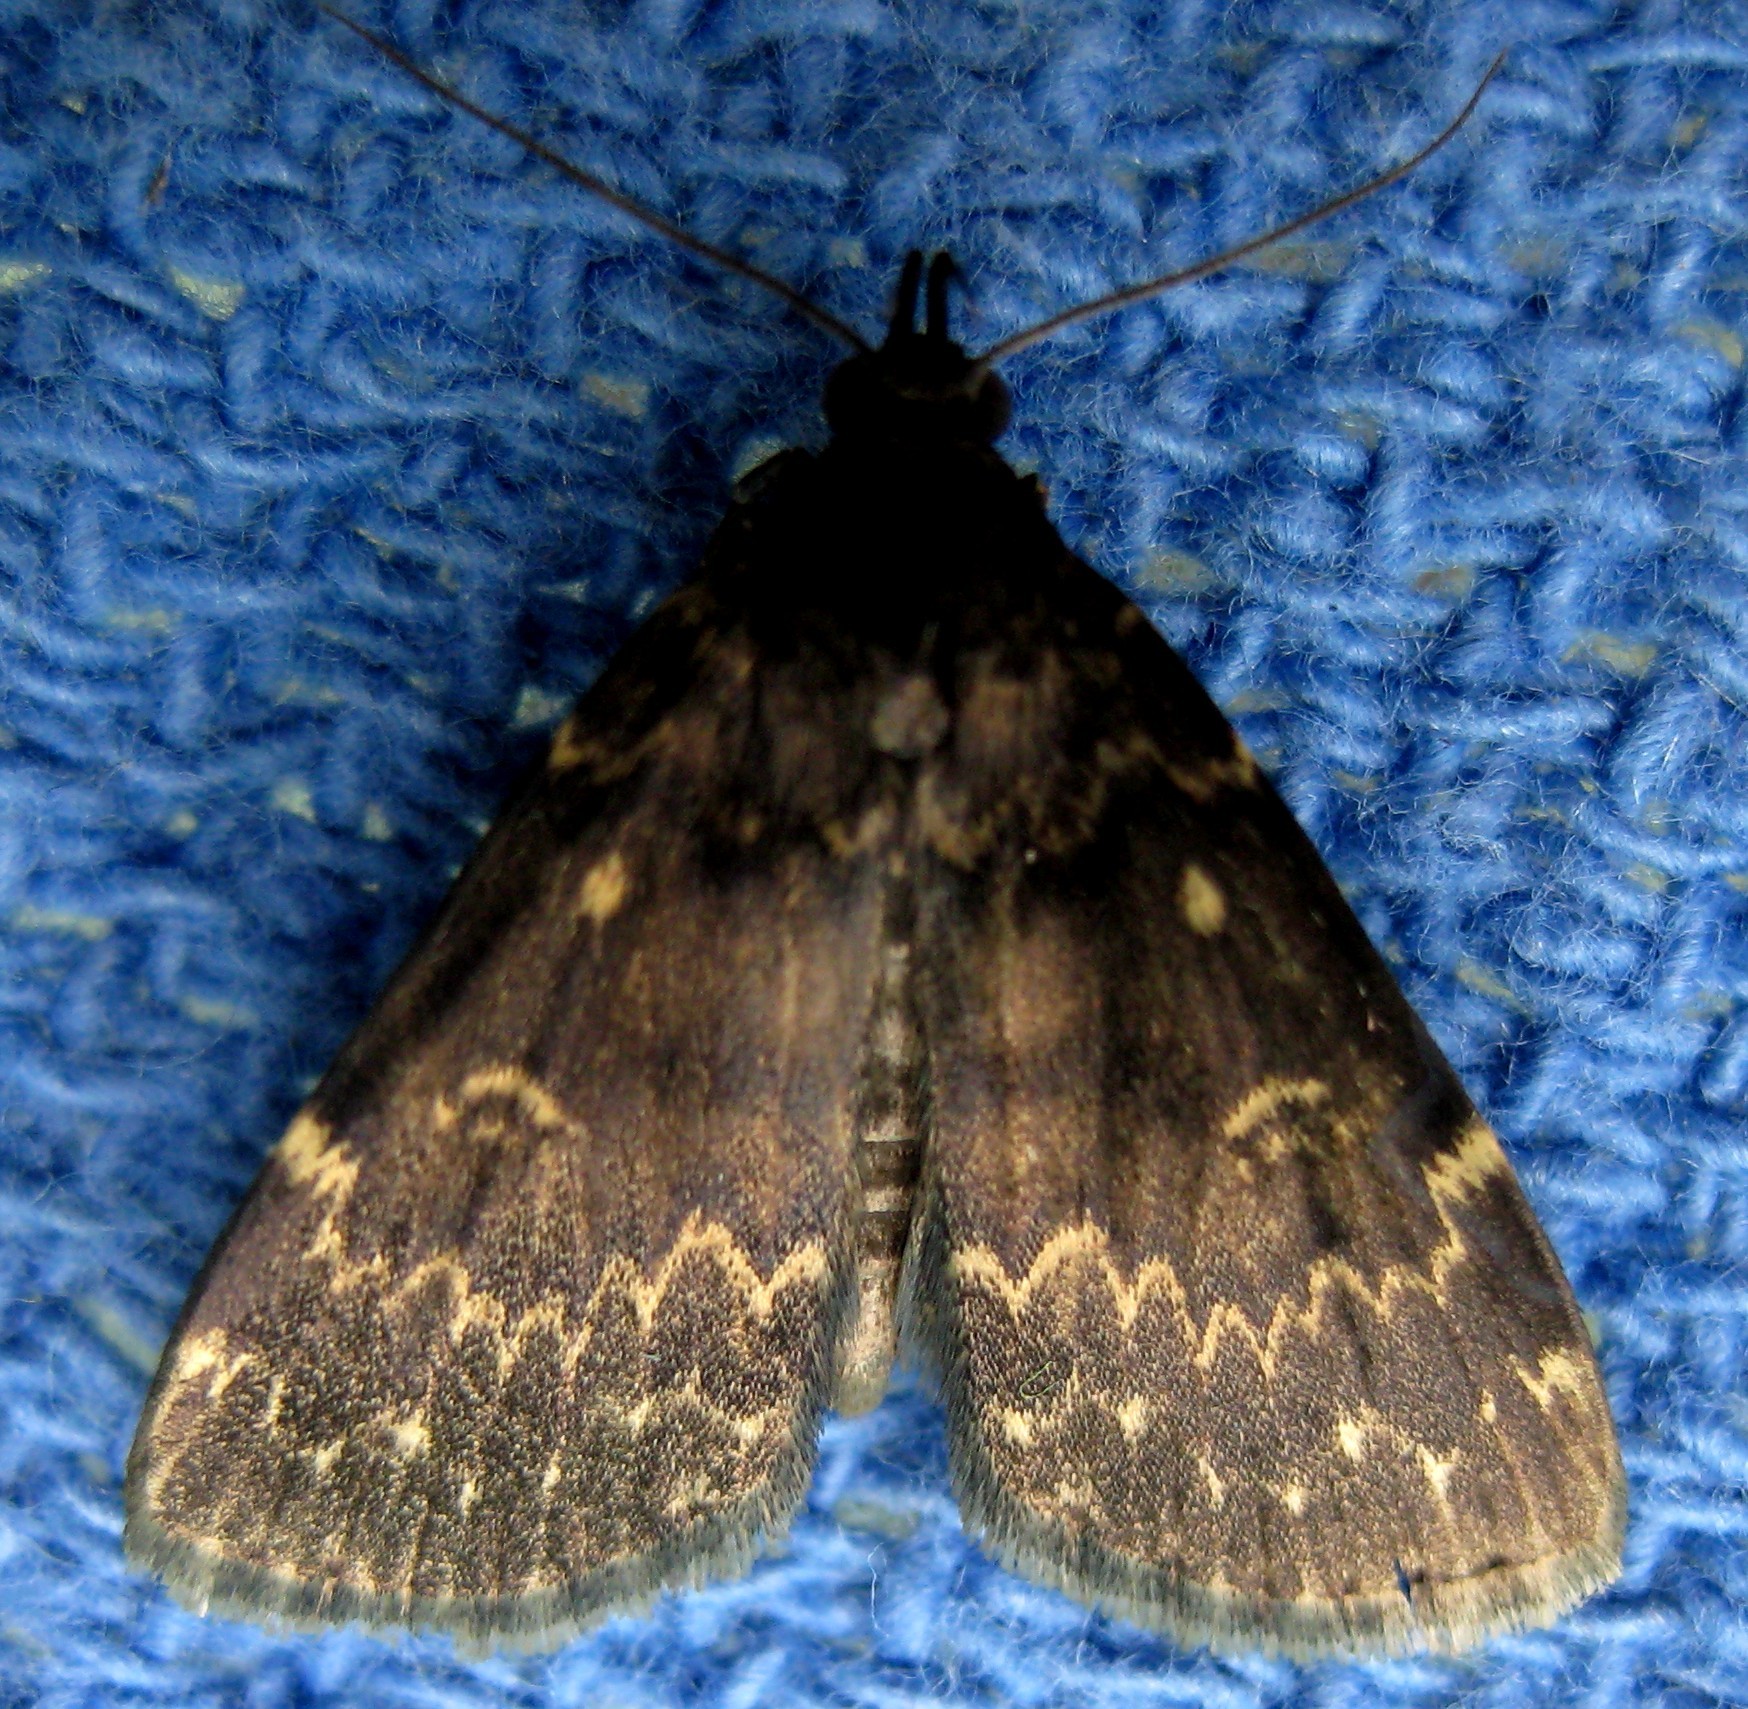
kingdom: Animalia
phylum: Arthropoda
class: Insecta
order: Lepidoptera
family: Erebidae
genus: Idia
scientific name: Idia lubricalis
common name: Twin-striped tabby
